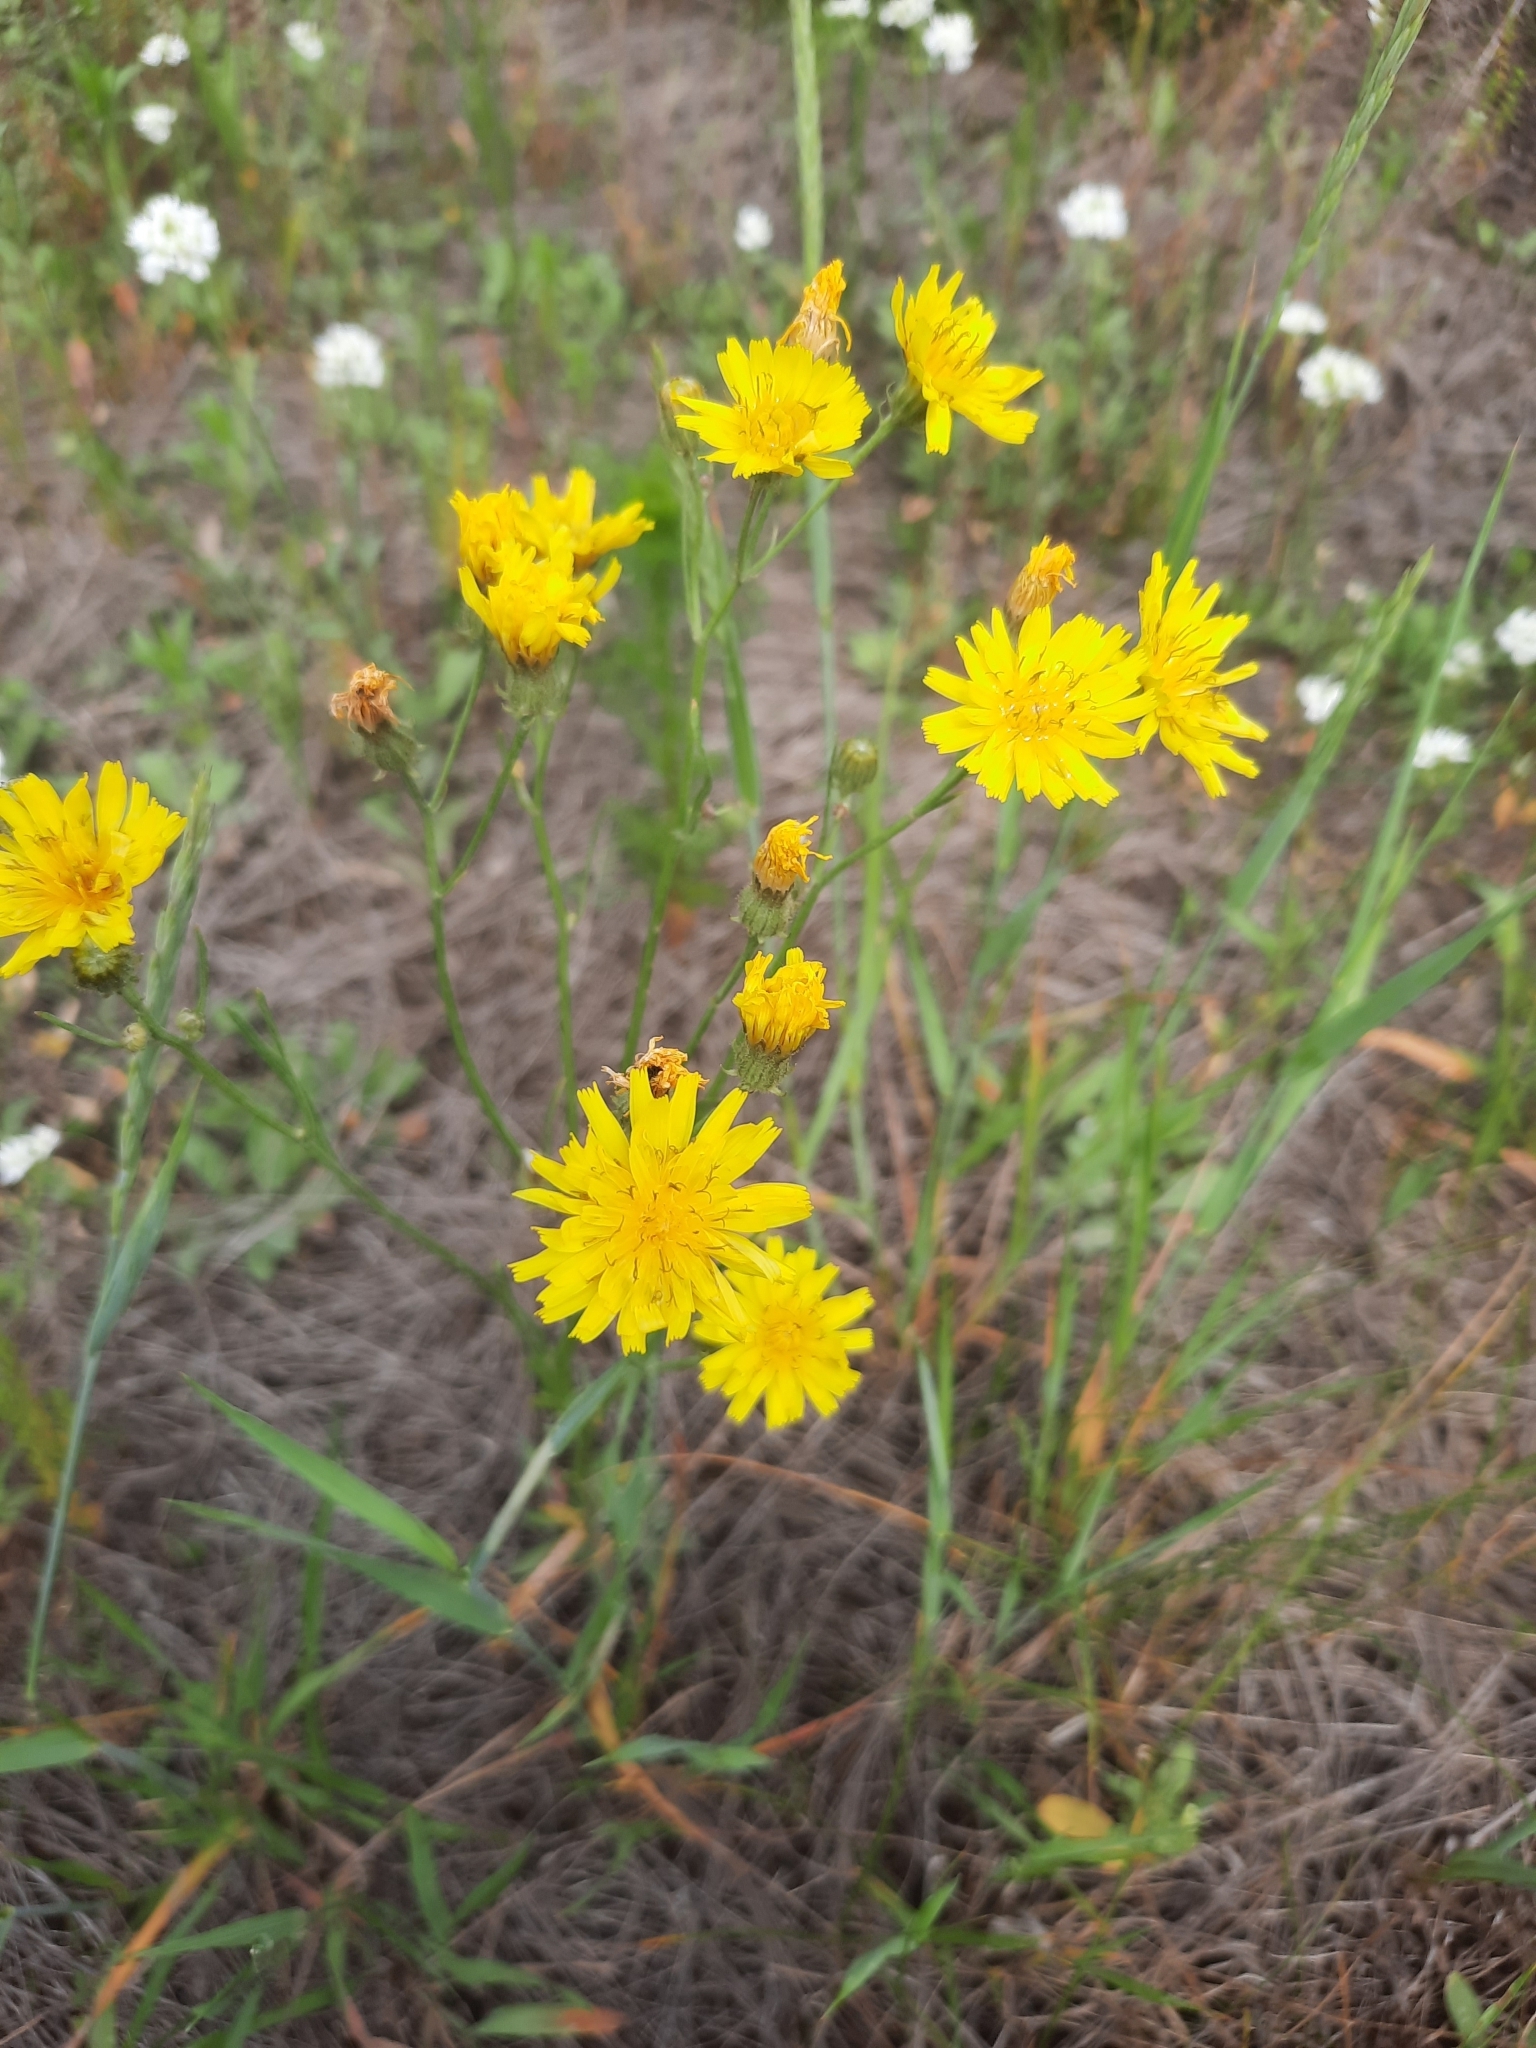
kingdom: Plantae
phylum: Tracheophyta
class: Magnoliopsida
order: Asterales
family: Asteraceae
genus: Crepis
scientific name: Crepis tectorum
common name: Narrow-leaved hawk's-beard
